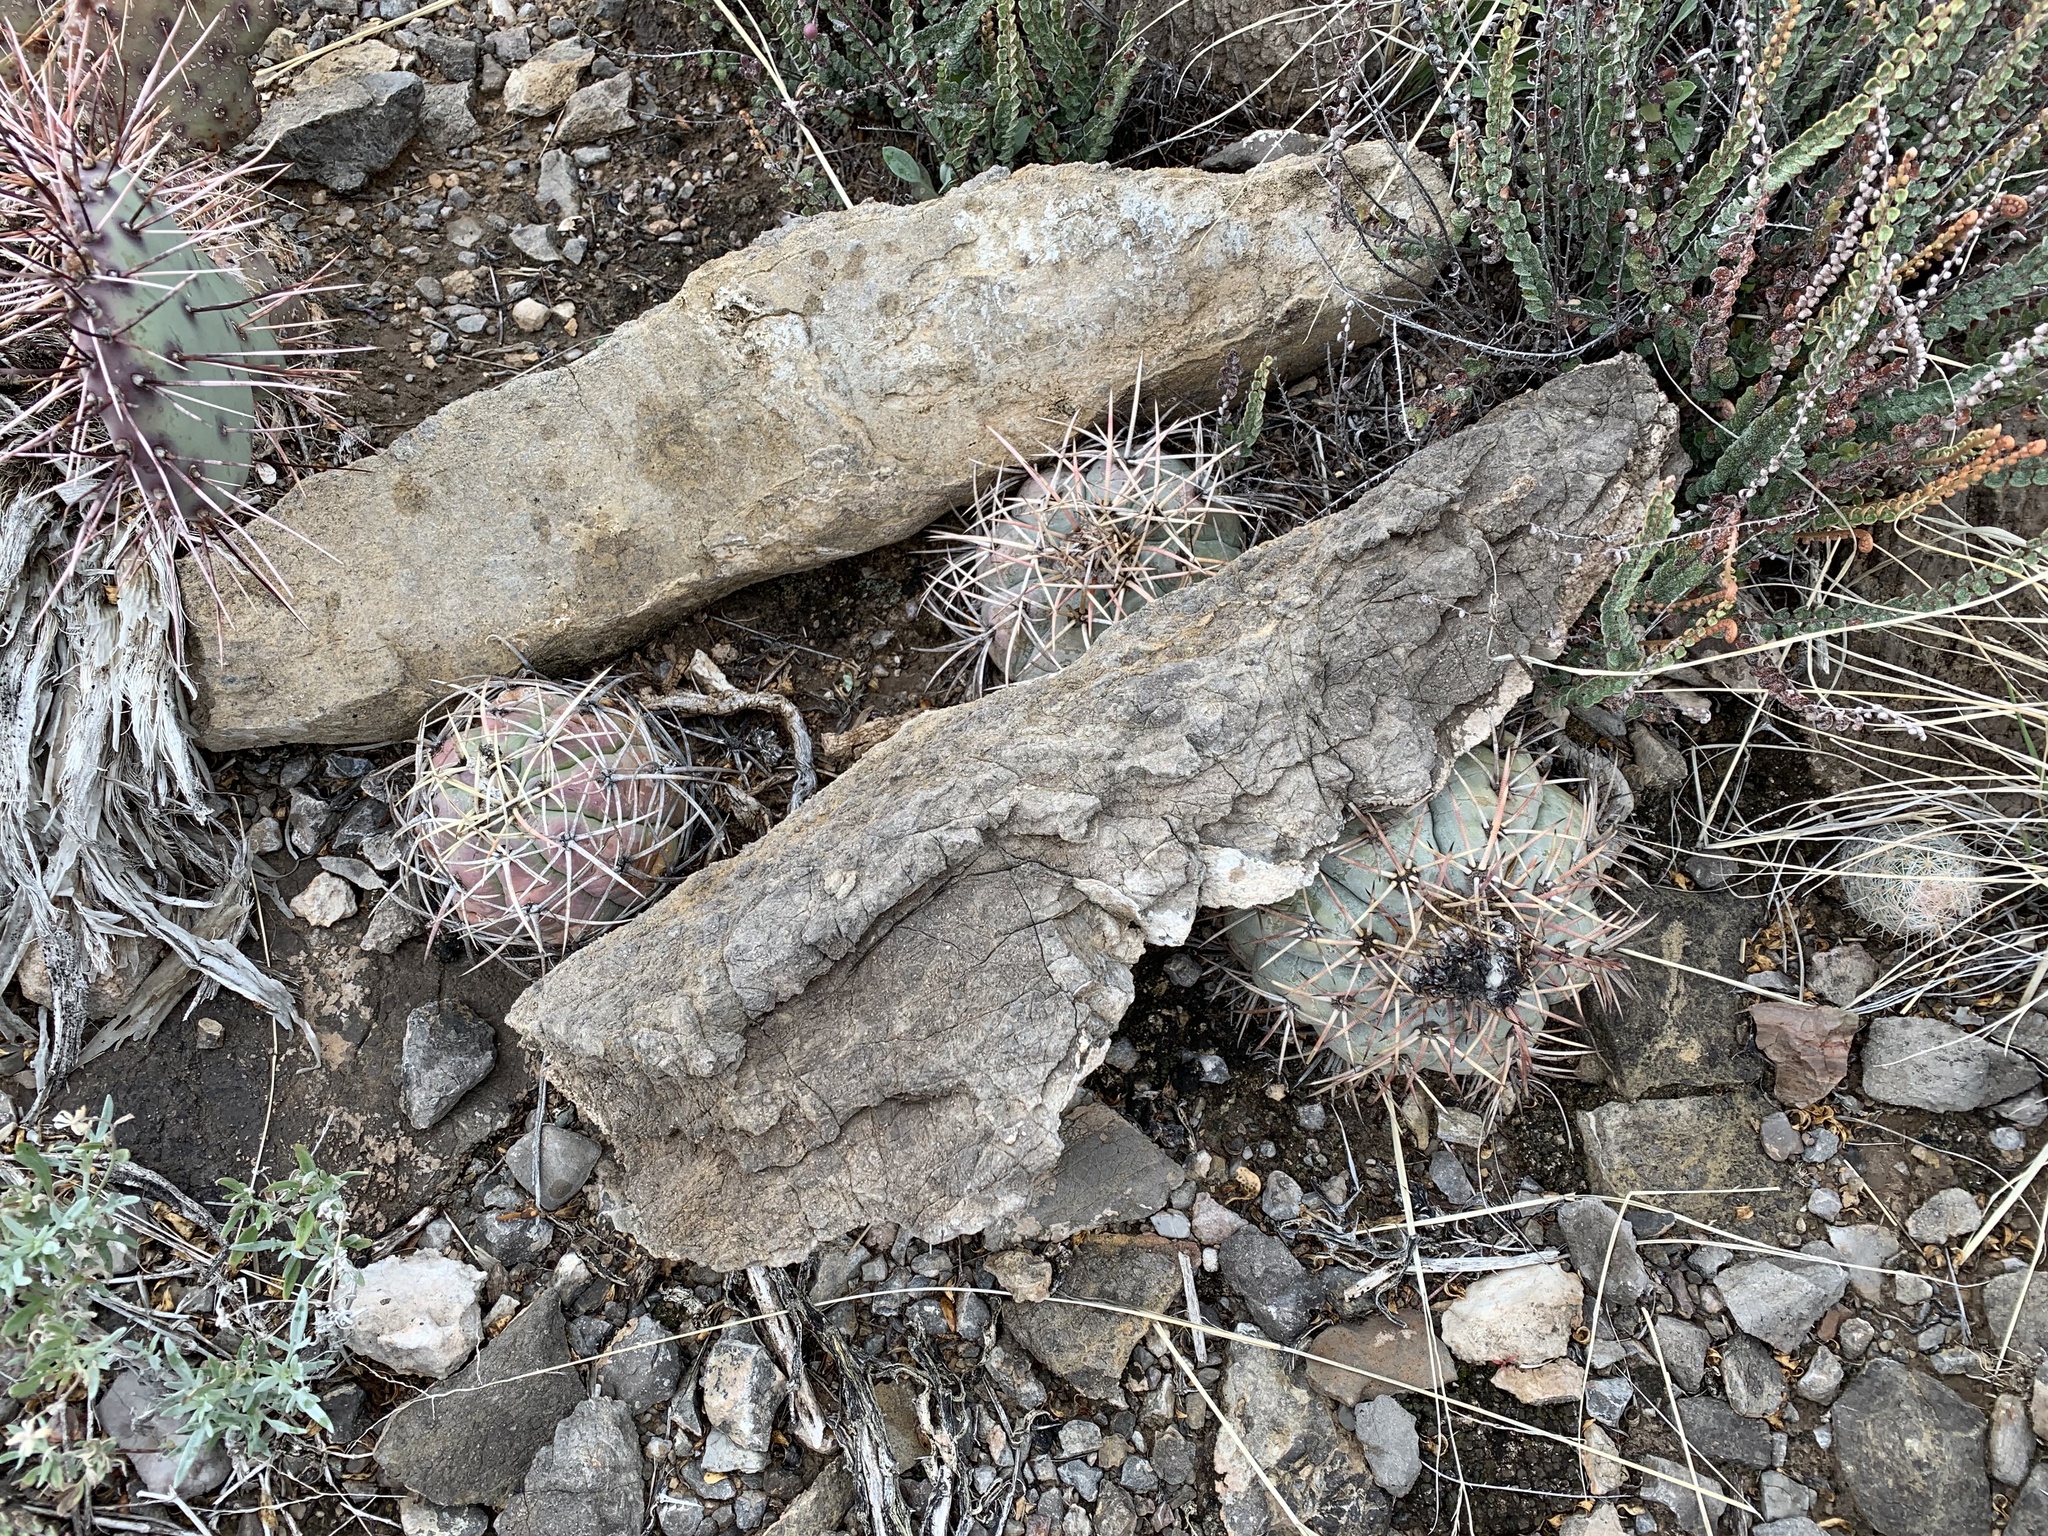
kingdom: Plantae
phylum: Tracheophyta
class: Magnoliopsida
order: Caryophyllales
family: Cactaceae
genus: Echinocactus
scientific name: Echinocactus horizonthalonius
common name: Devilshead
